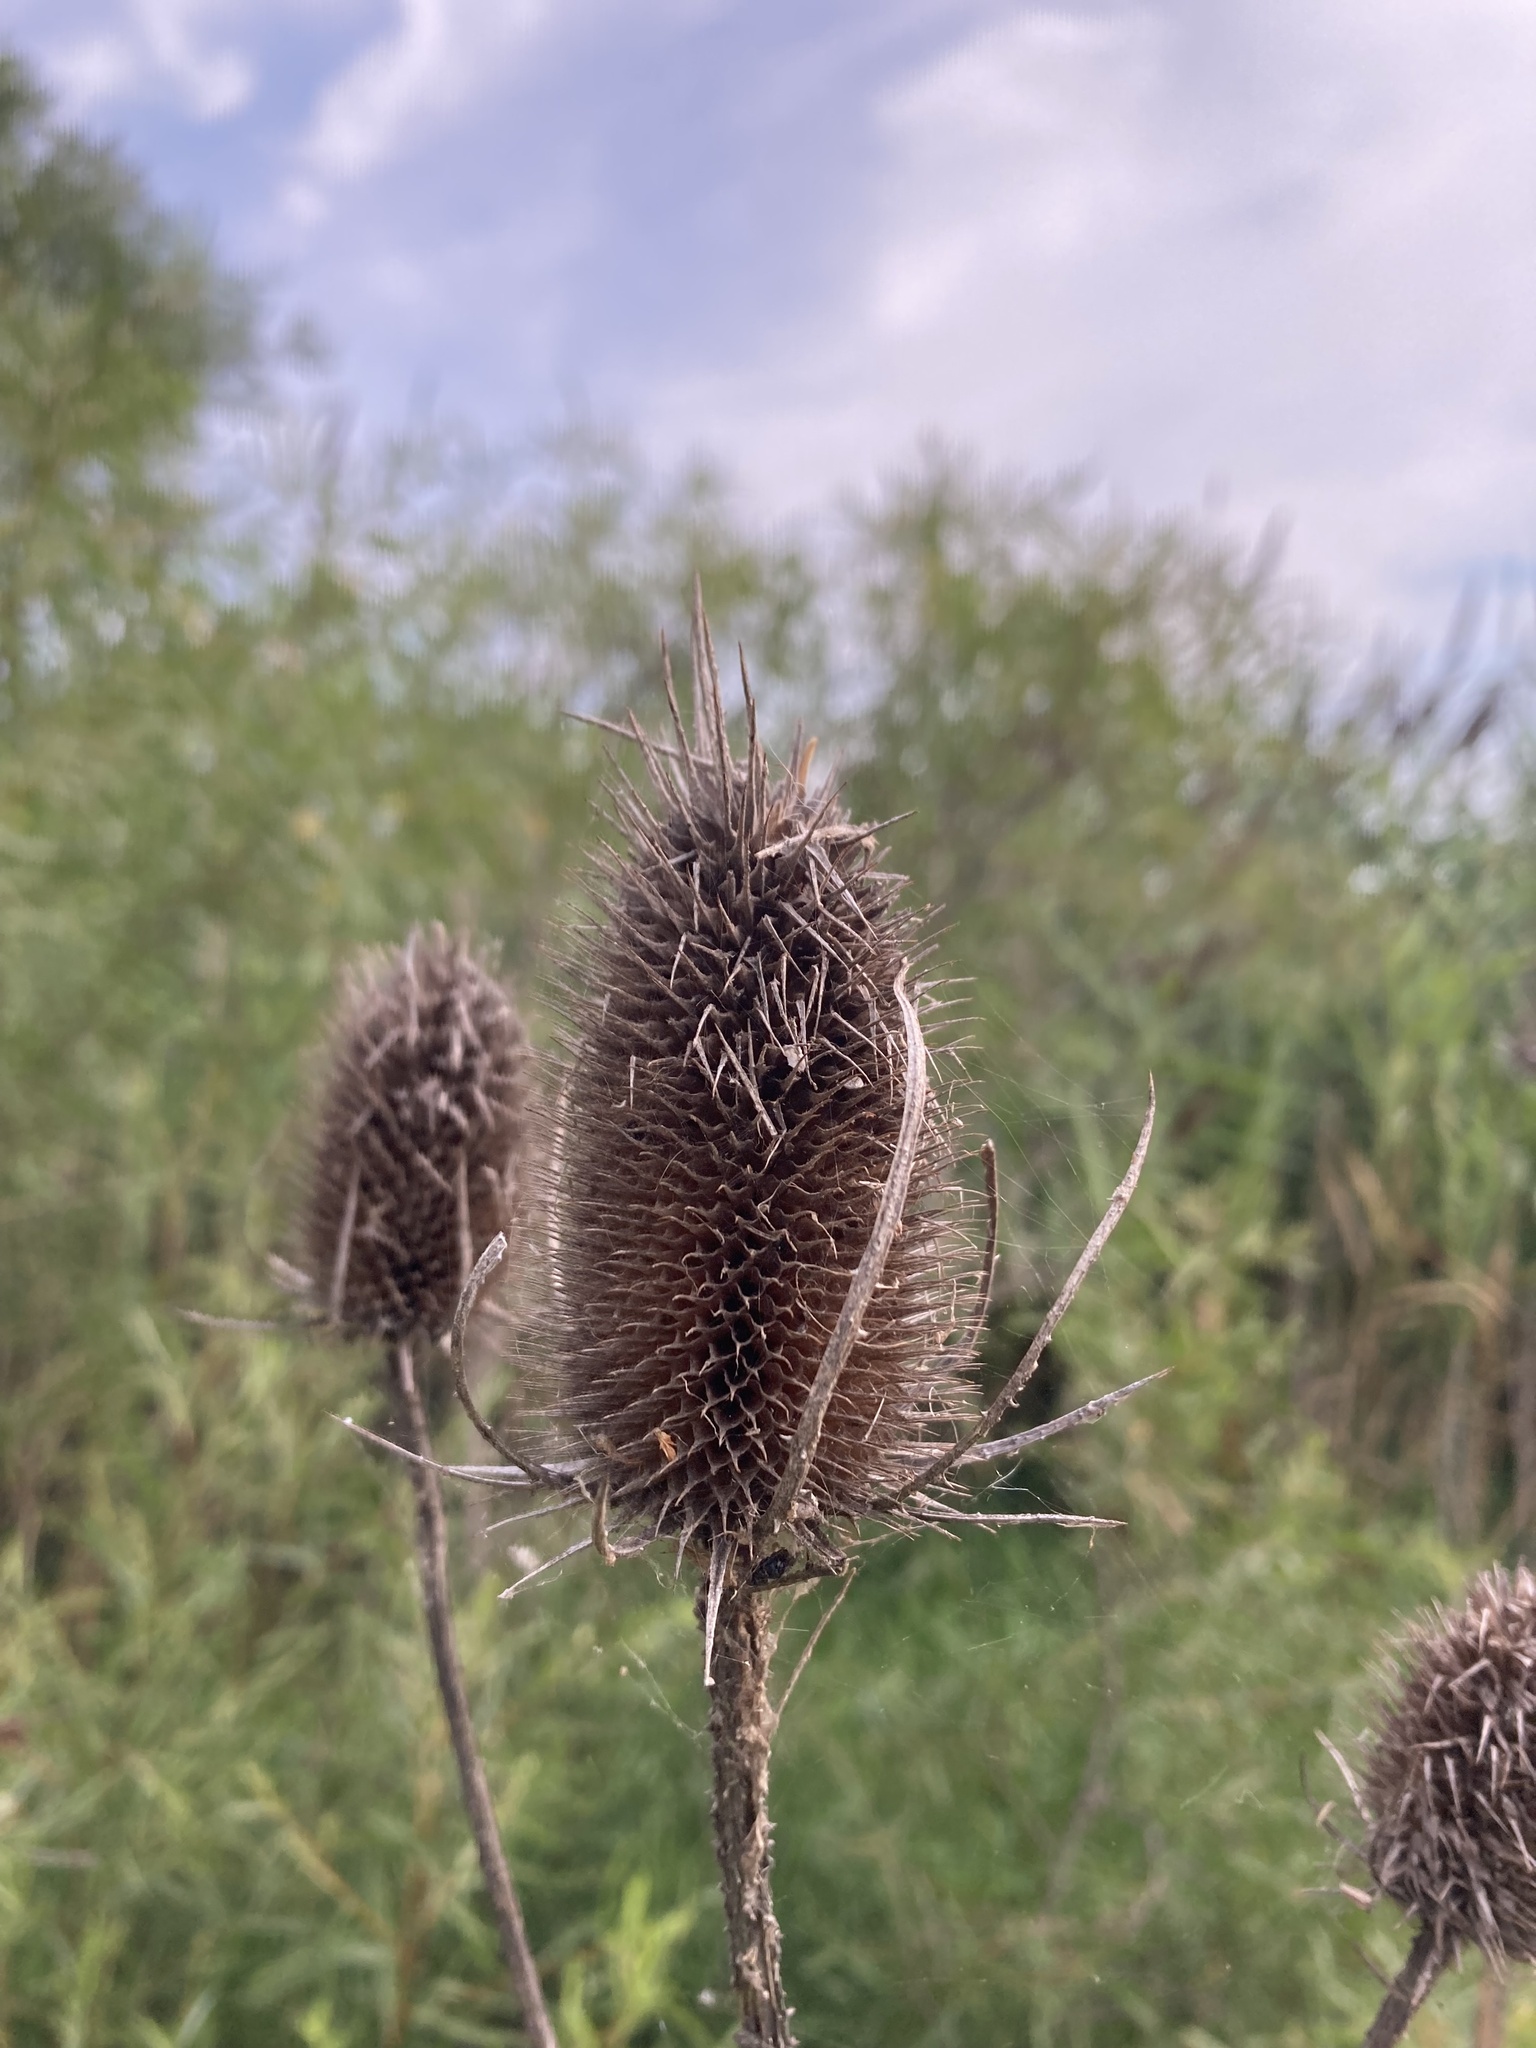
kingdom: Plantae
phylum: Tracheophyta
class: Magnoliopsida
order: Dipsacales
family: Caprifoliaceae
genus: Dipsacus
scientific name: Dipsacus fullonum
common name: Teasel
